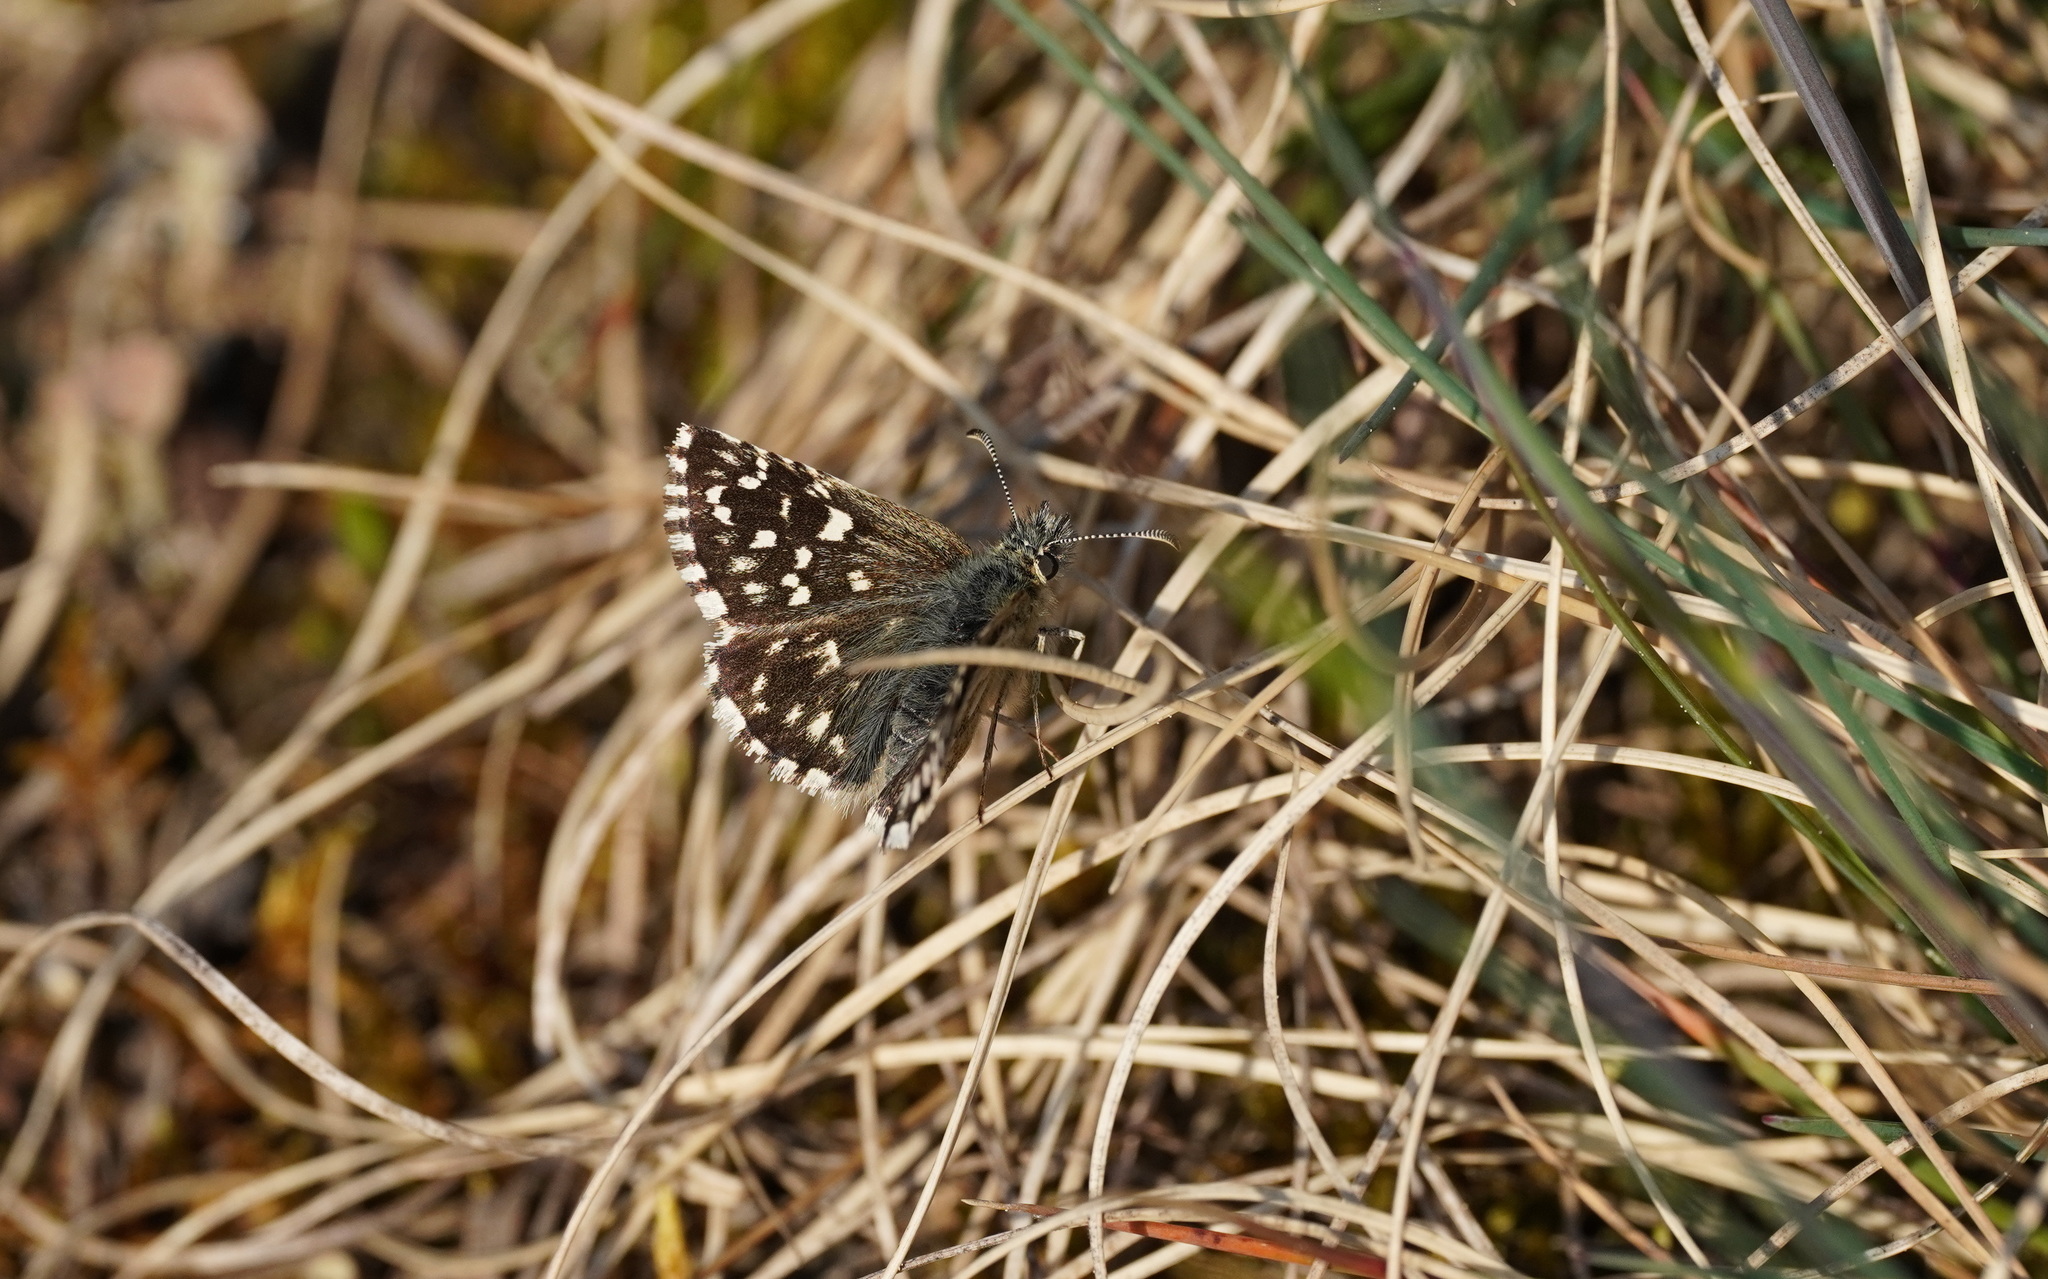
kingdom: Animalia
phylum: Arthropoda
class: Insecta
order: Lepidoptera
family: Hesperiidae
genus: Pyrgus
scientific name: Pyrgus malvae
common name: Grizzled skipper
